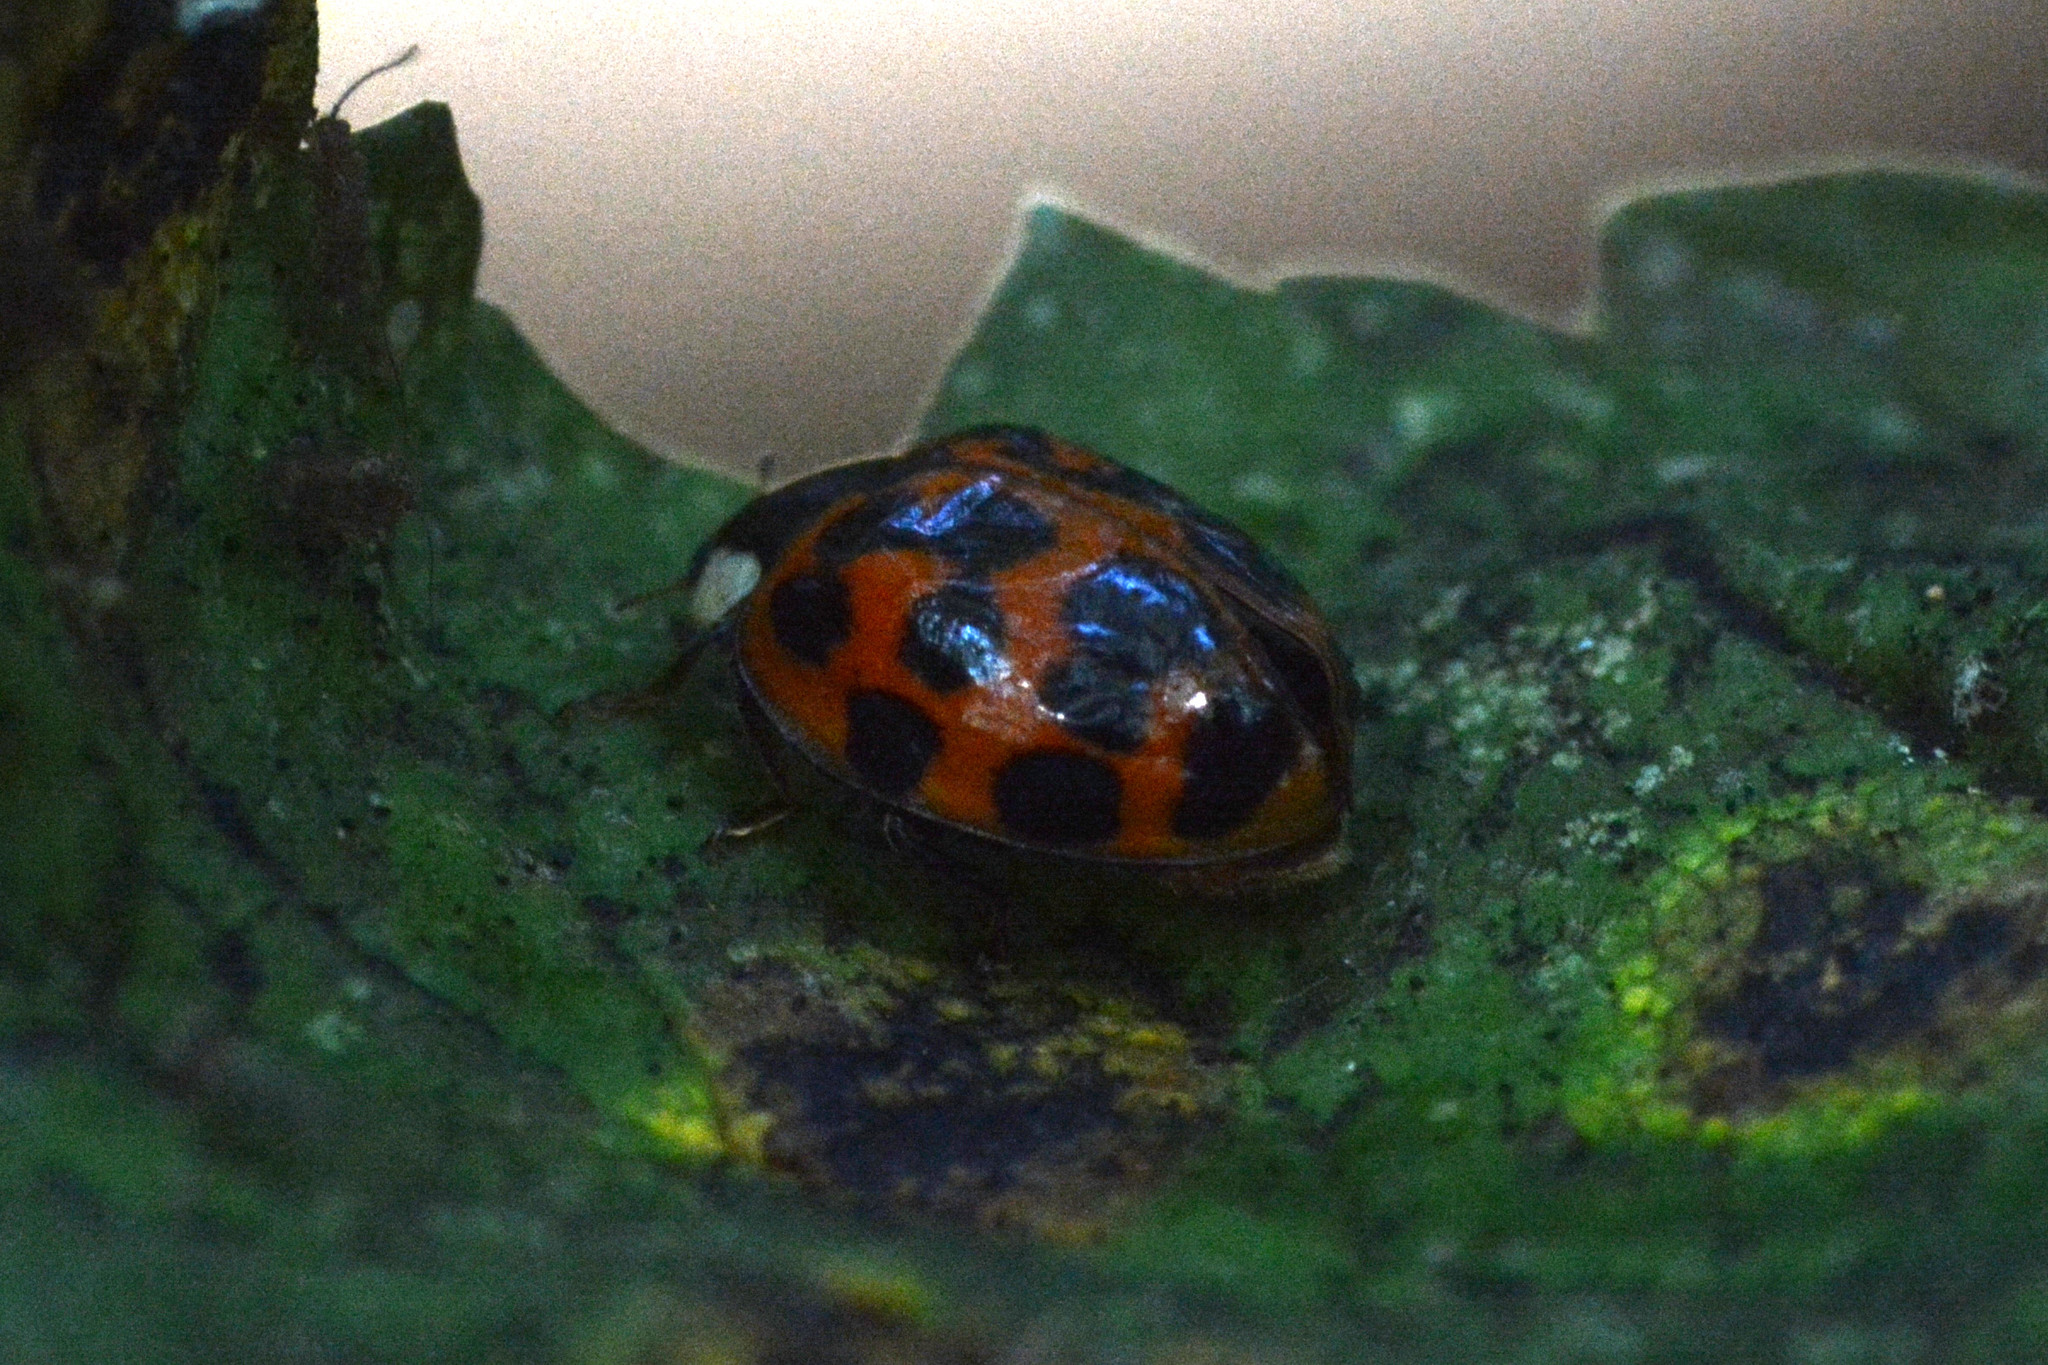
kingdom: Animalia
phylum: Arthropoda
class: Insecta
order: Coleoptera
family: Coccinellidae
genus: Harmonia
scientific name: Harmonia axyridis
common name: Harlequin ladybird
